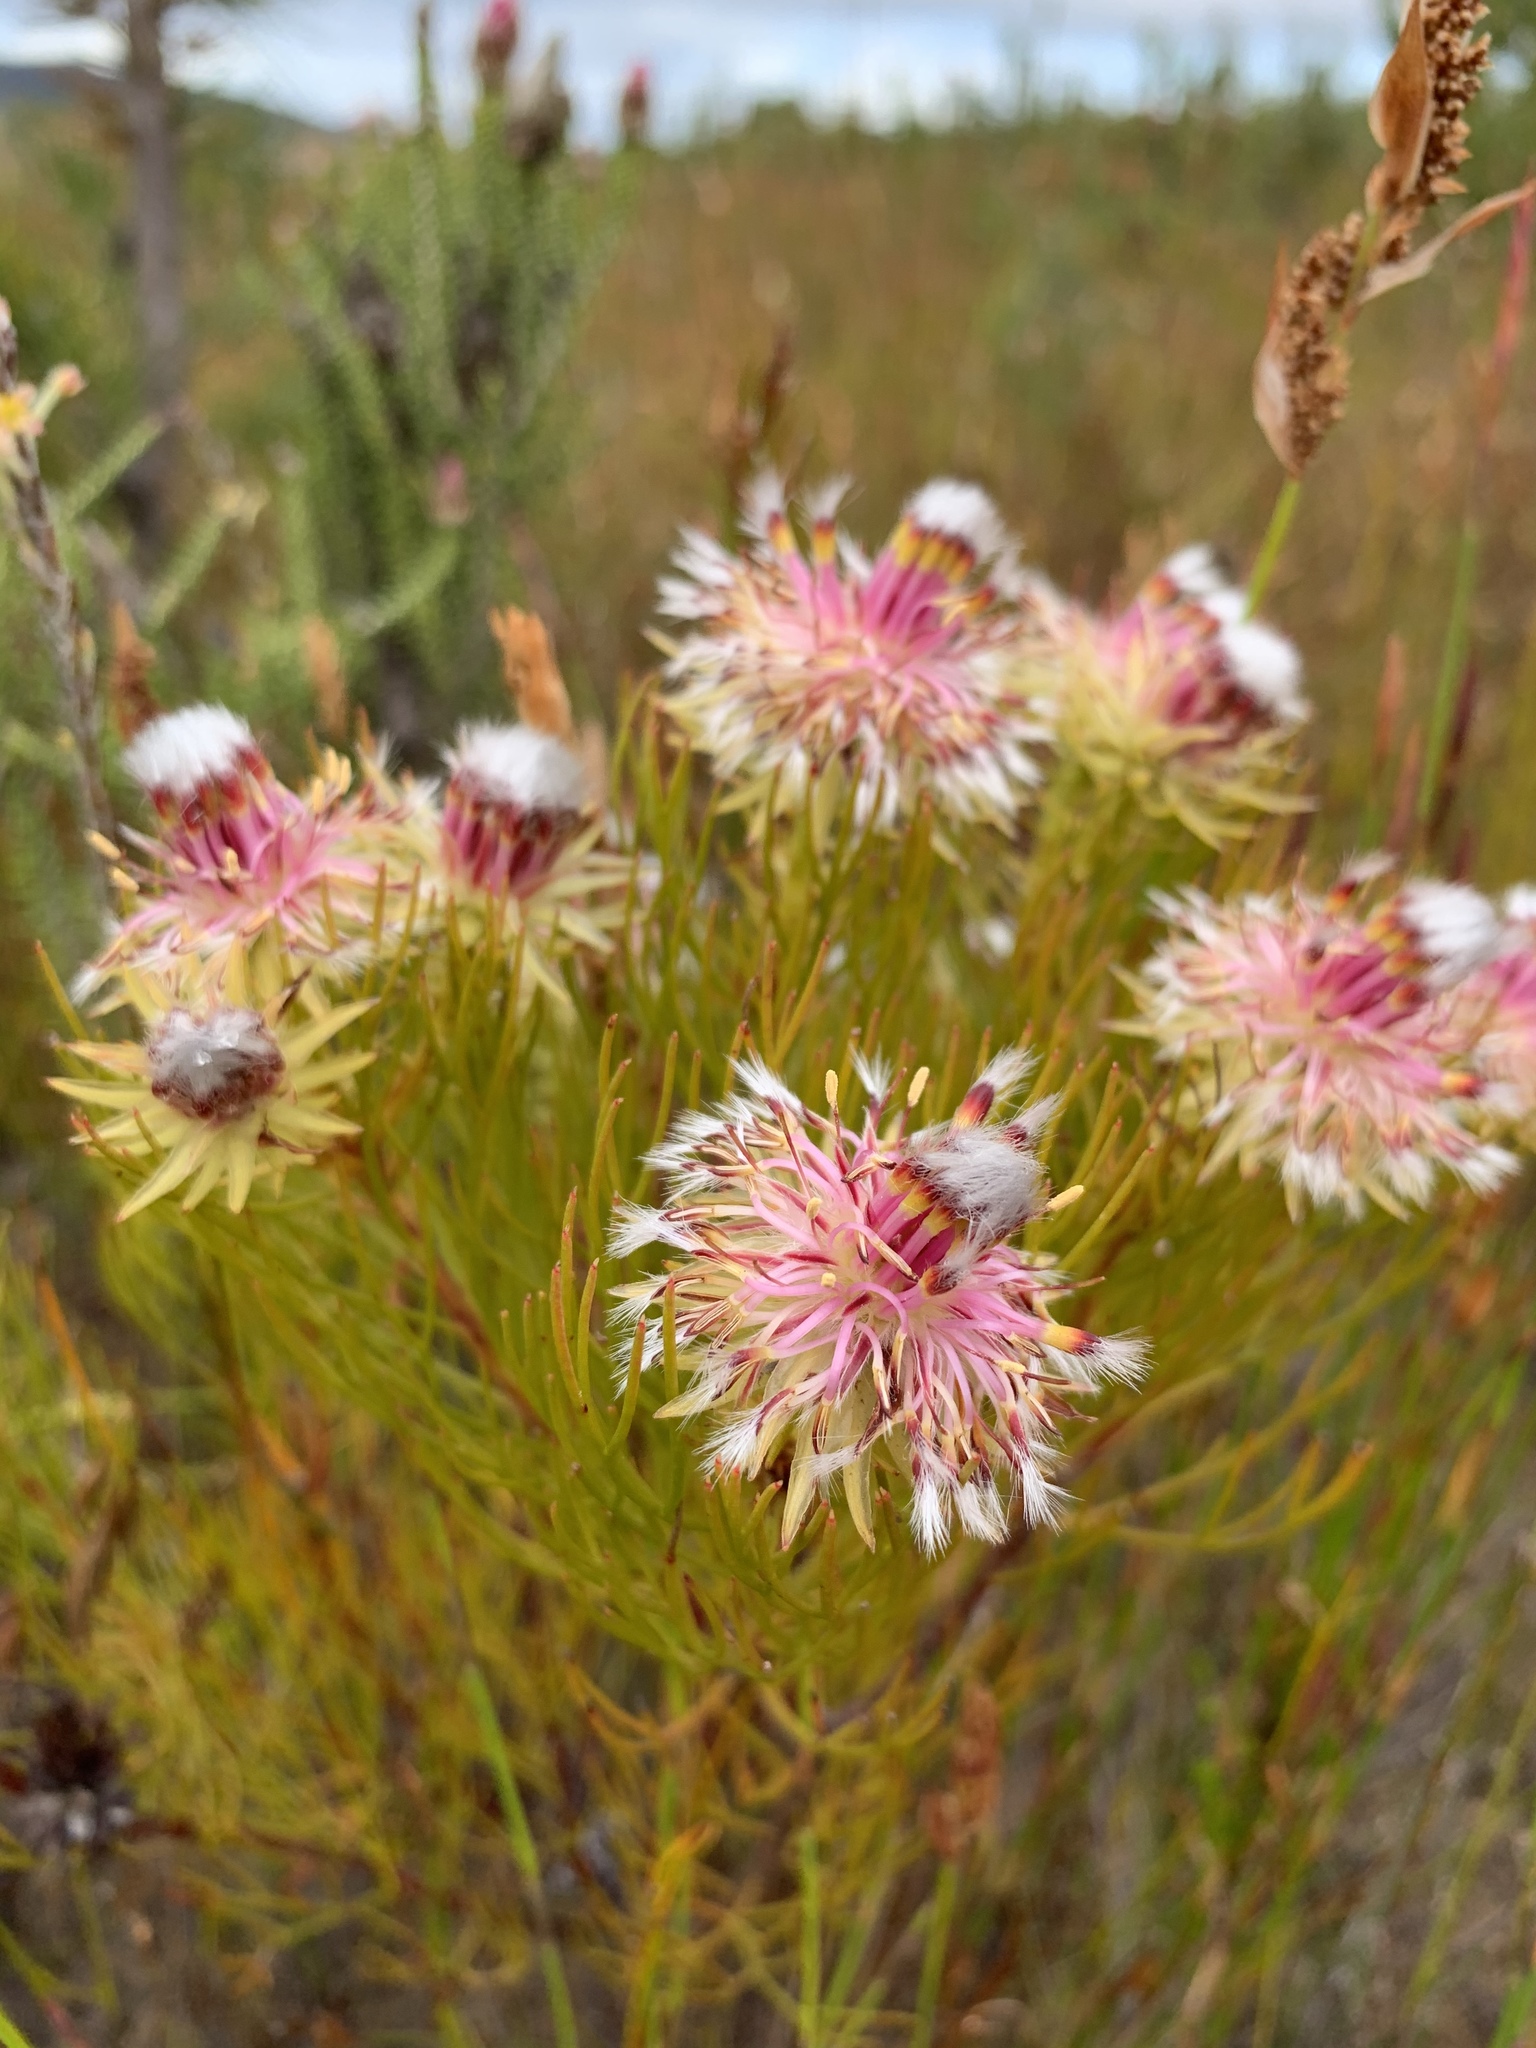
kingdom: Plantae
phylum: Tracheophyta
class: Magnoliopsida
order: Proteales
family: Proteaceae
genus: Serruria
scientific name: Serruria phylicoides
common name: Bearded spiderhead
